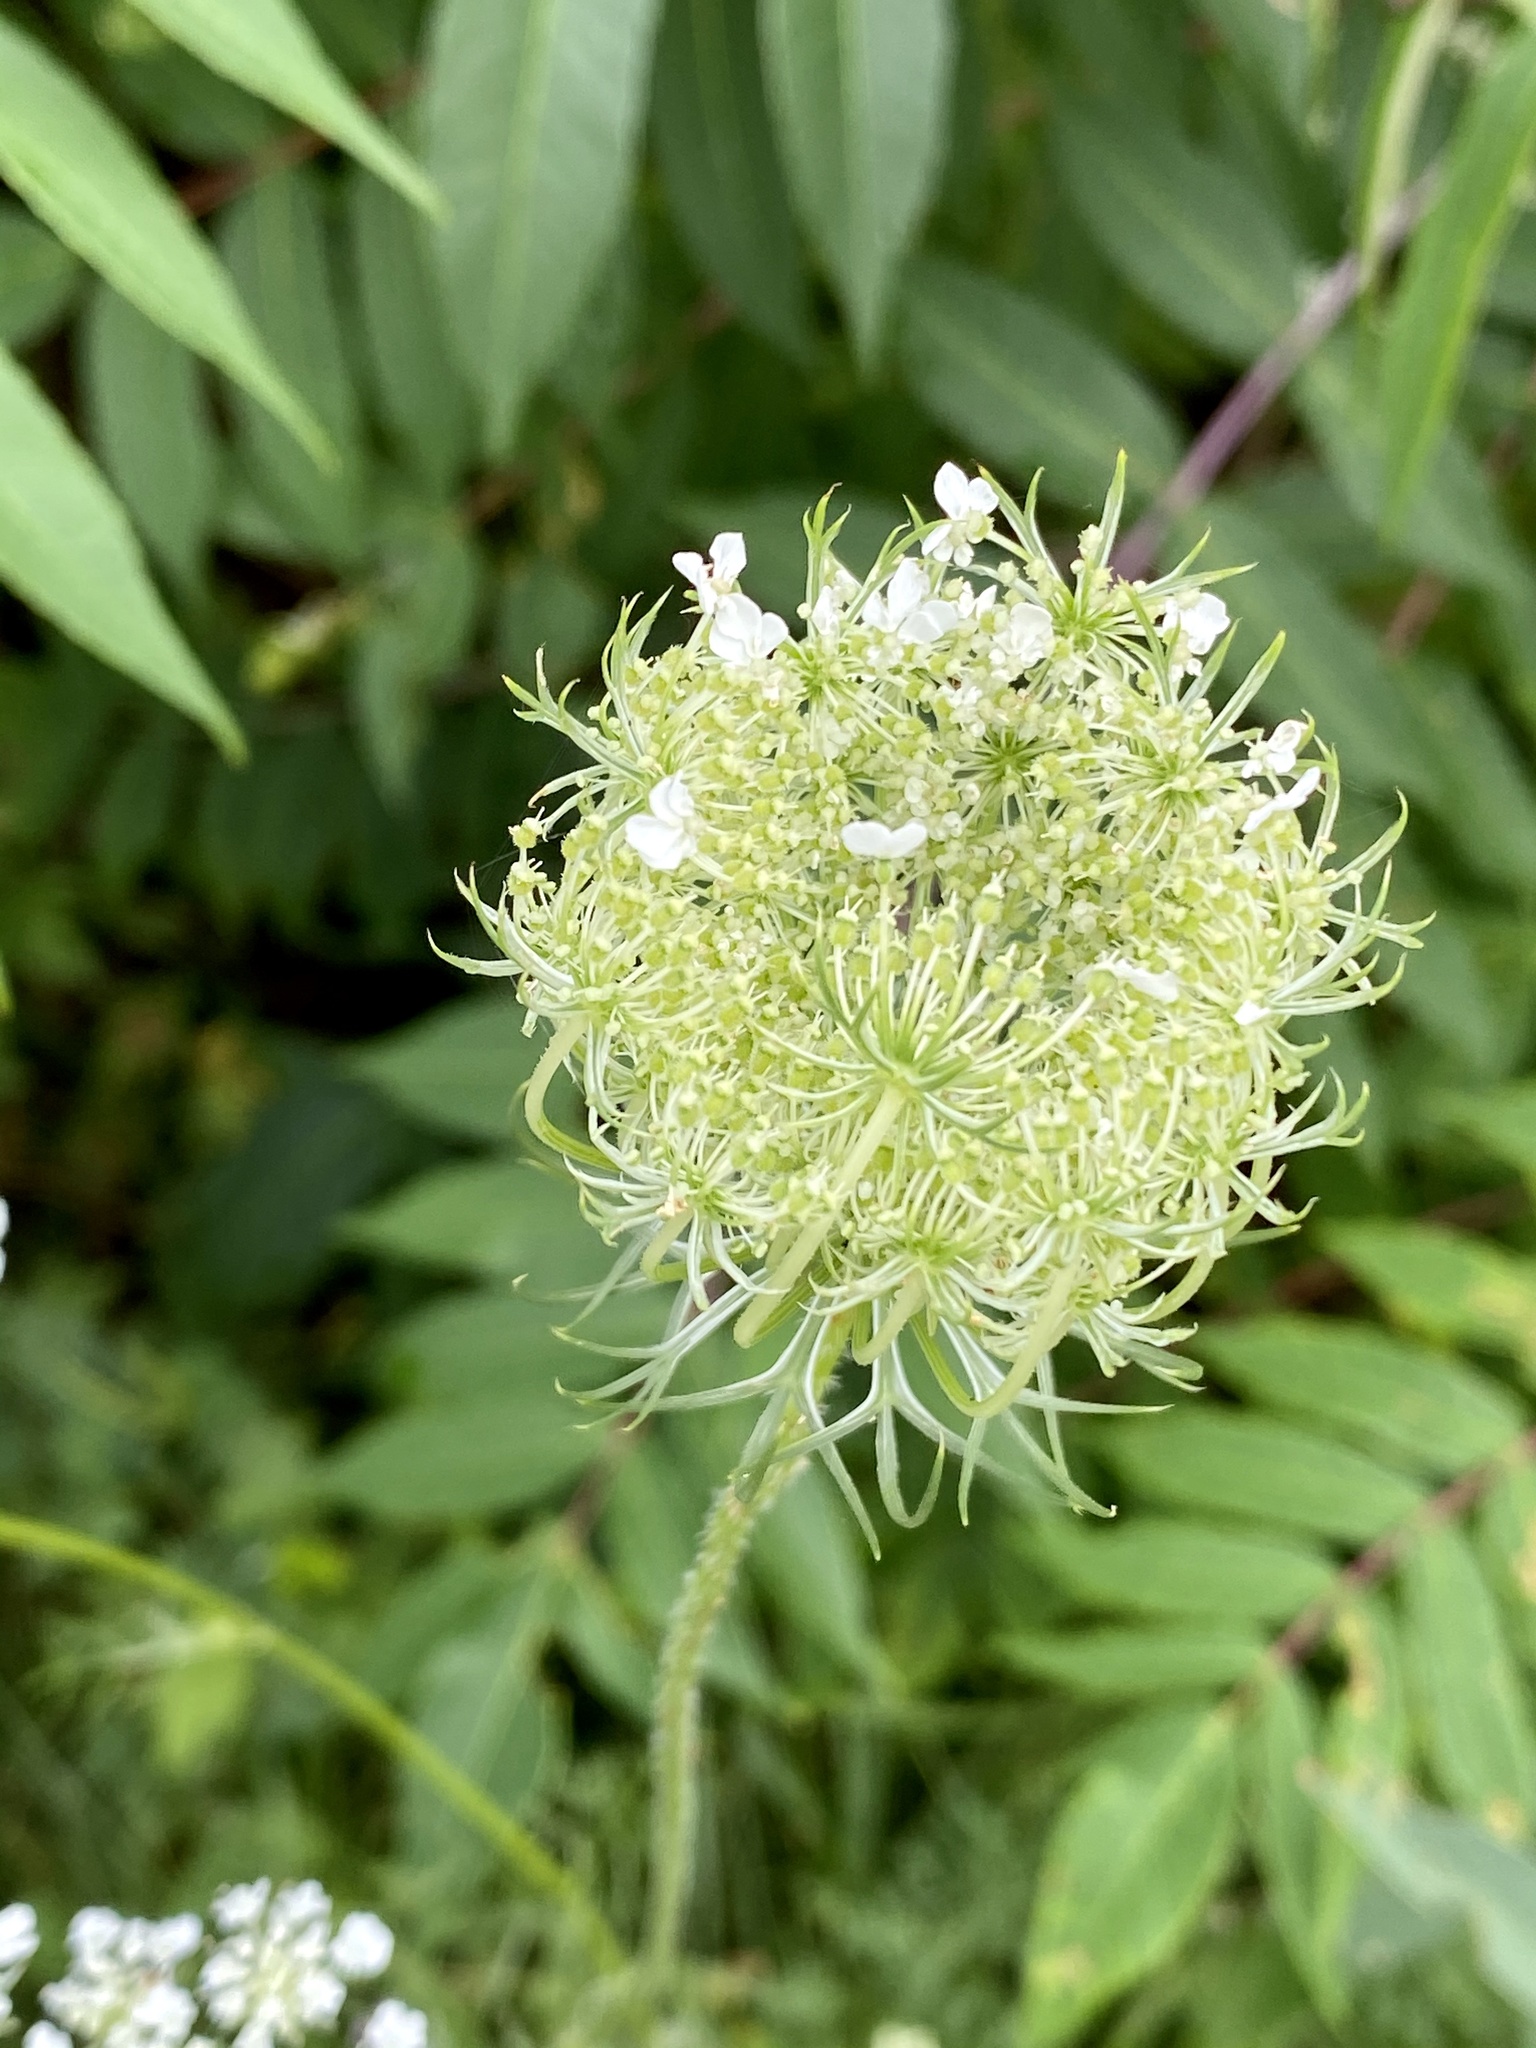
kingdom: Plantae
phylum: Tracheophyta
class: Magnoliopsida
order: Apiales
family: Apiaceae
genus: Daucus
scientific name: Daucus carota
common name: Wild carrot
